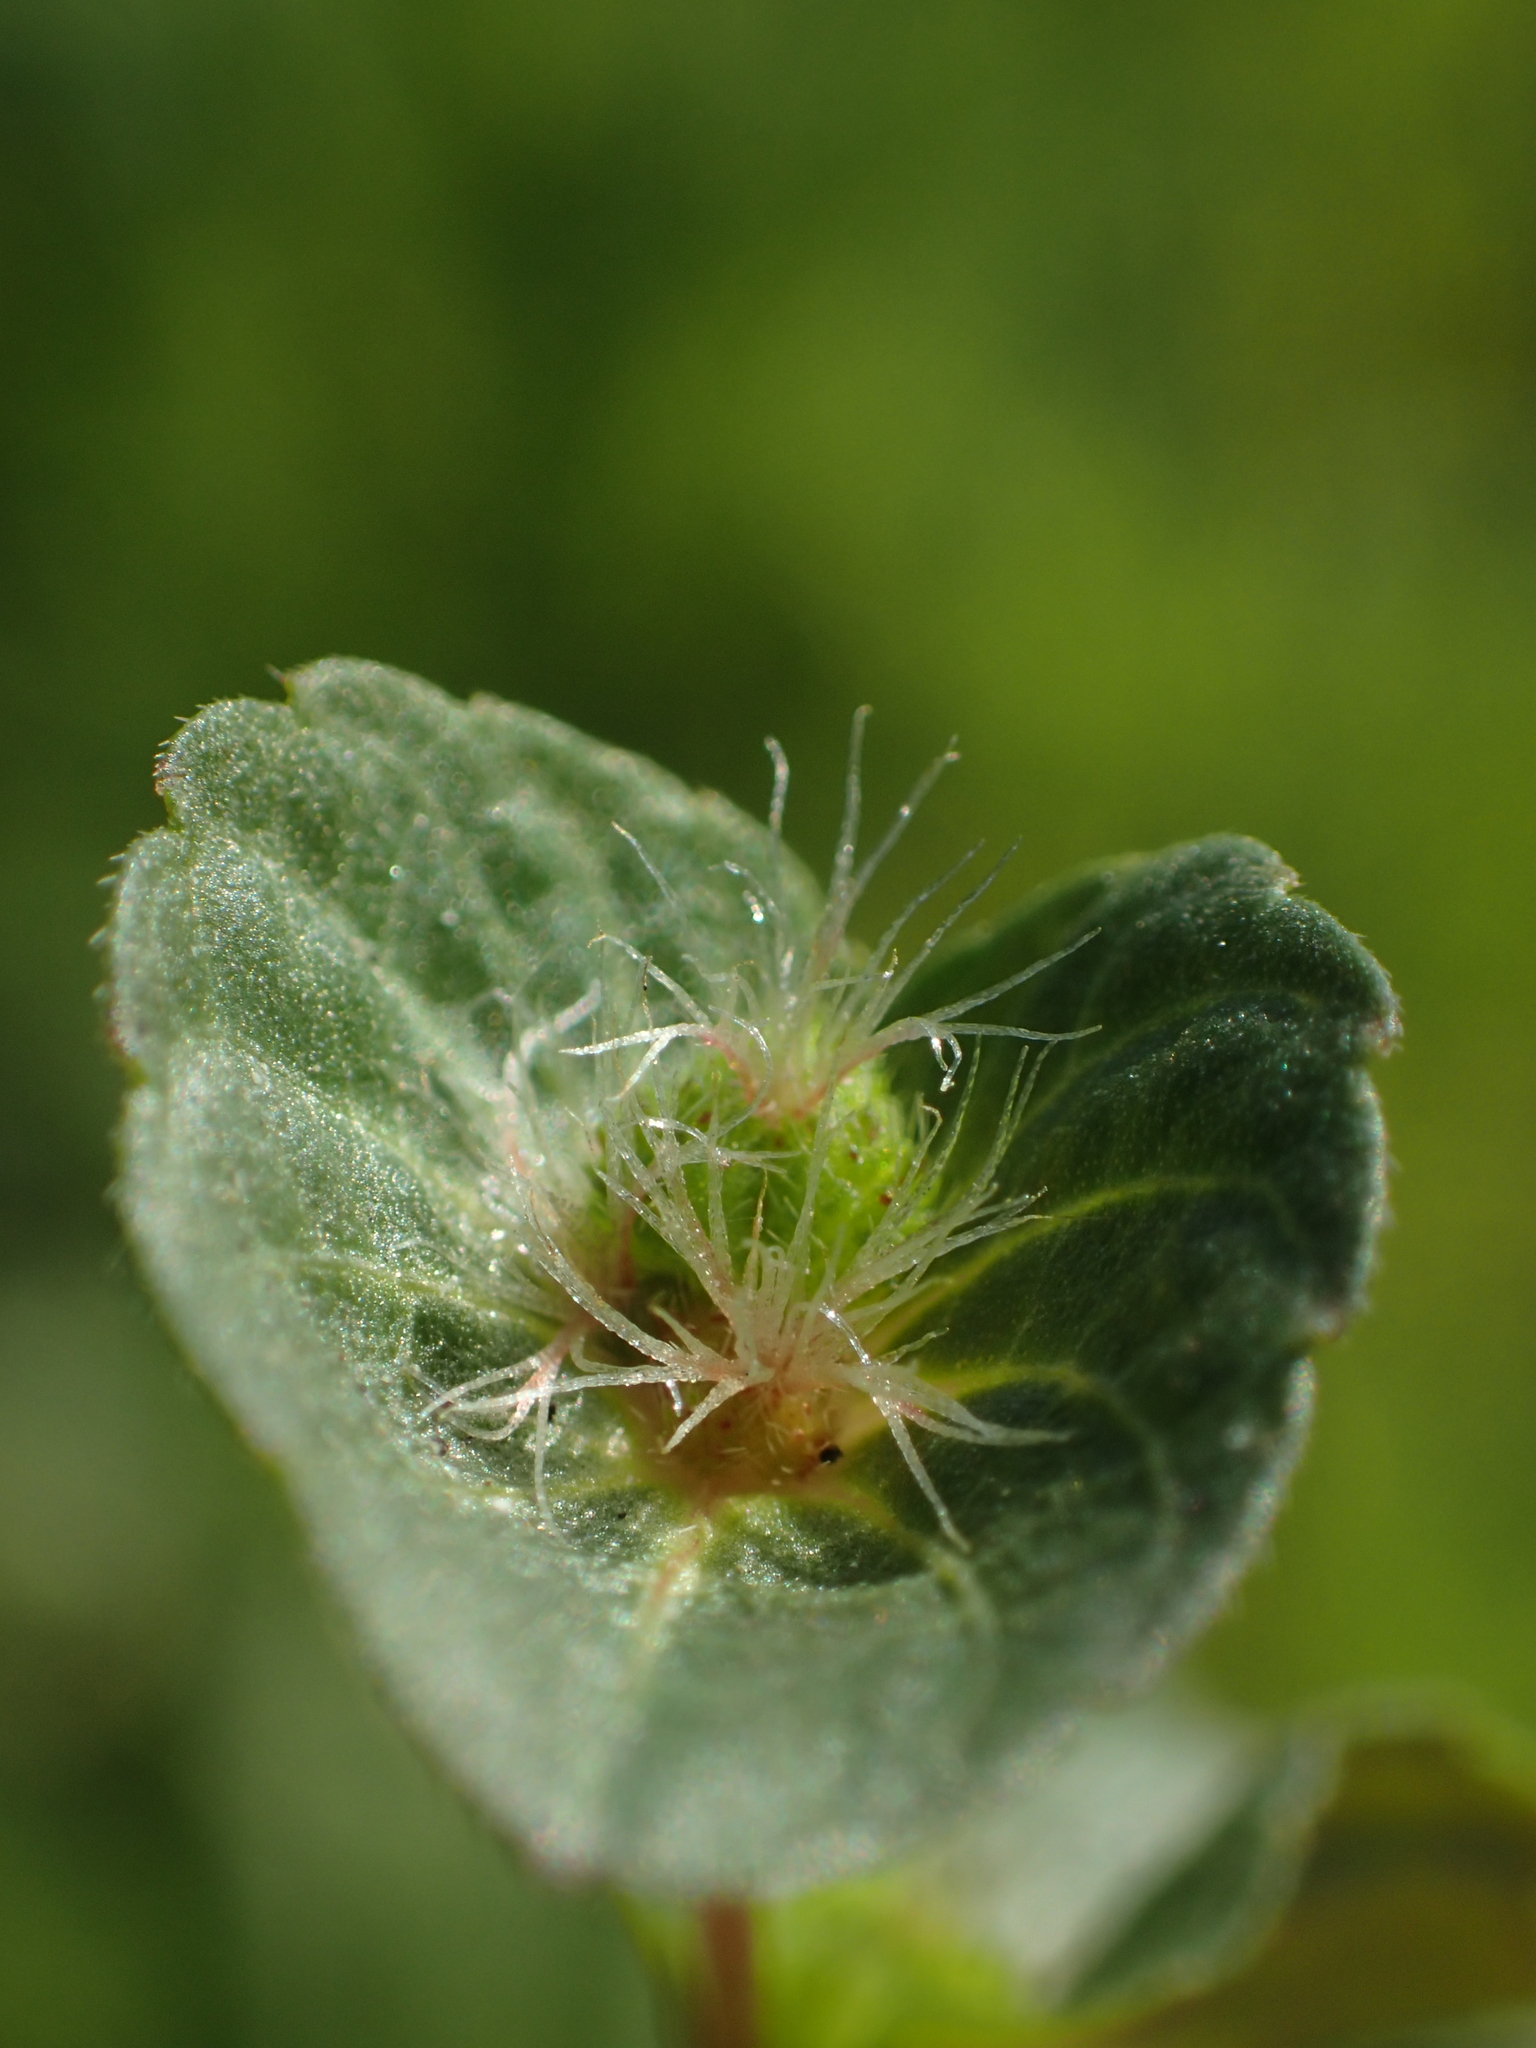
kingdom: Plantae
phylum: Tracheophyta
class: Magnoliopsida
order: Malpighiales
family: Euphorbiaceae
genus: Acalypha
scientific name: Acalypha australis
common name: Asian copperleaf
